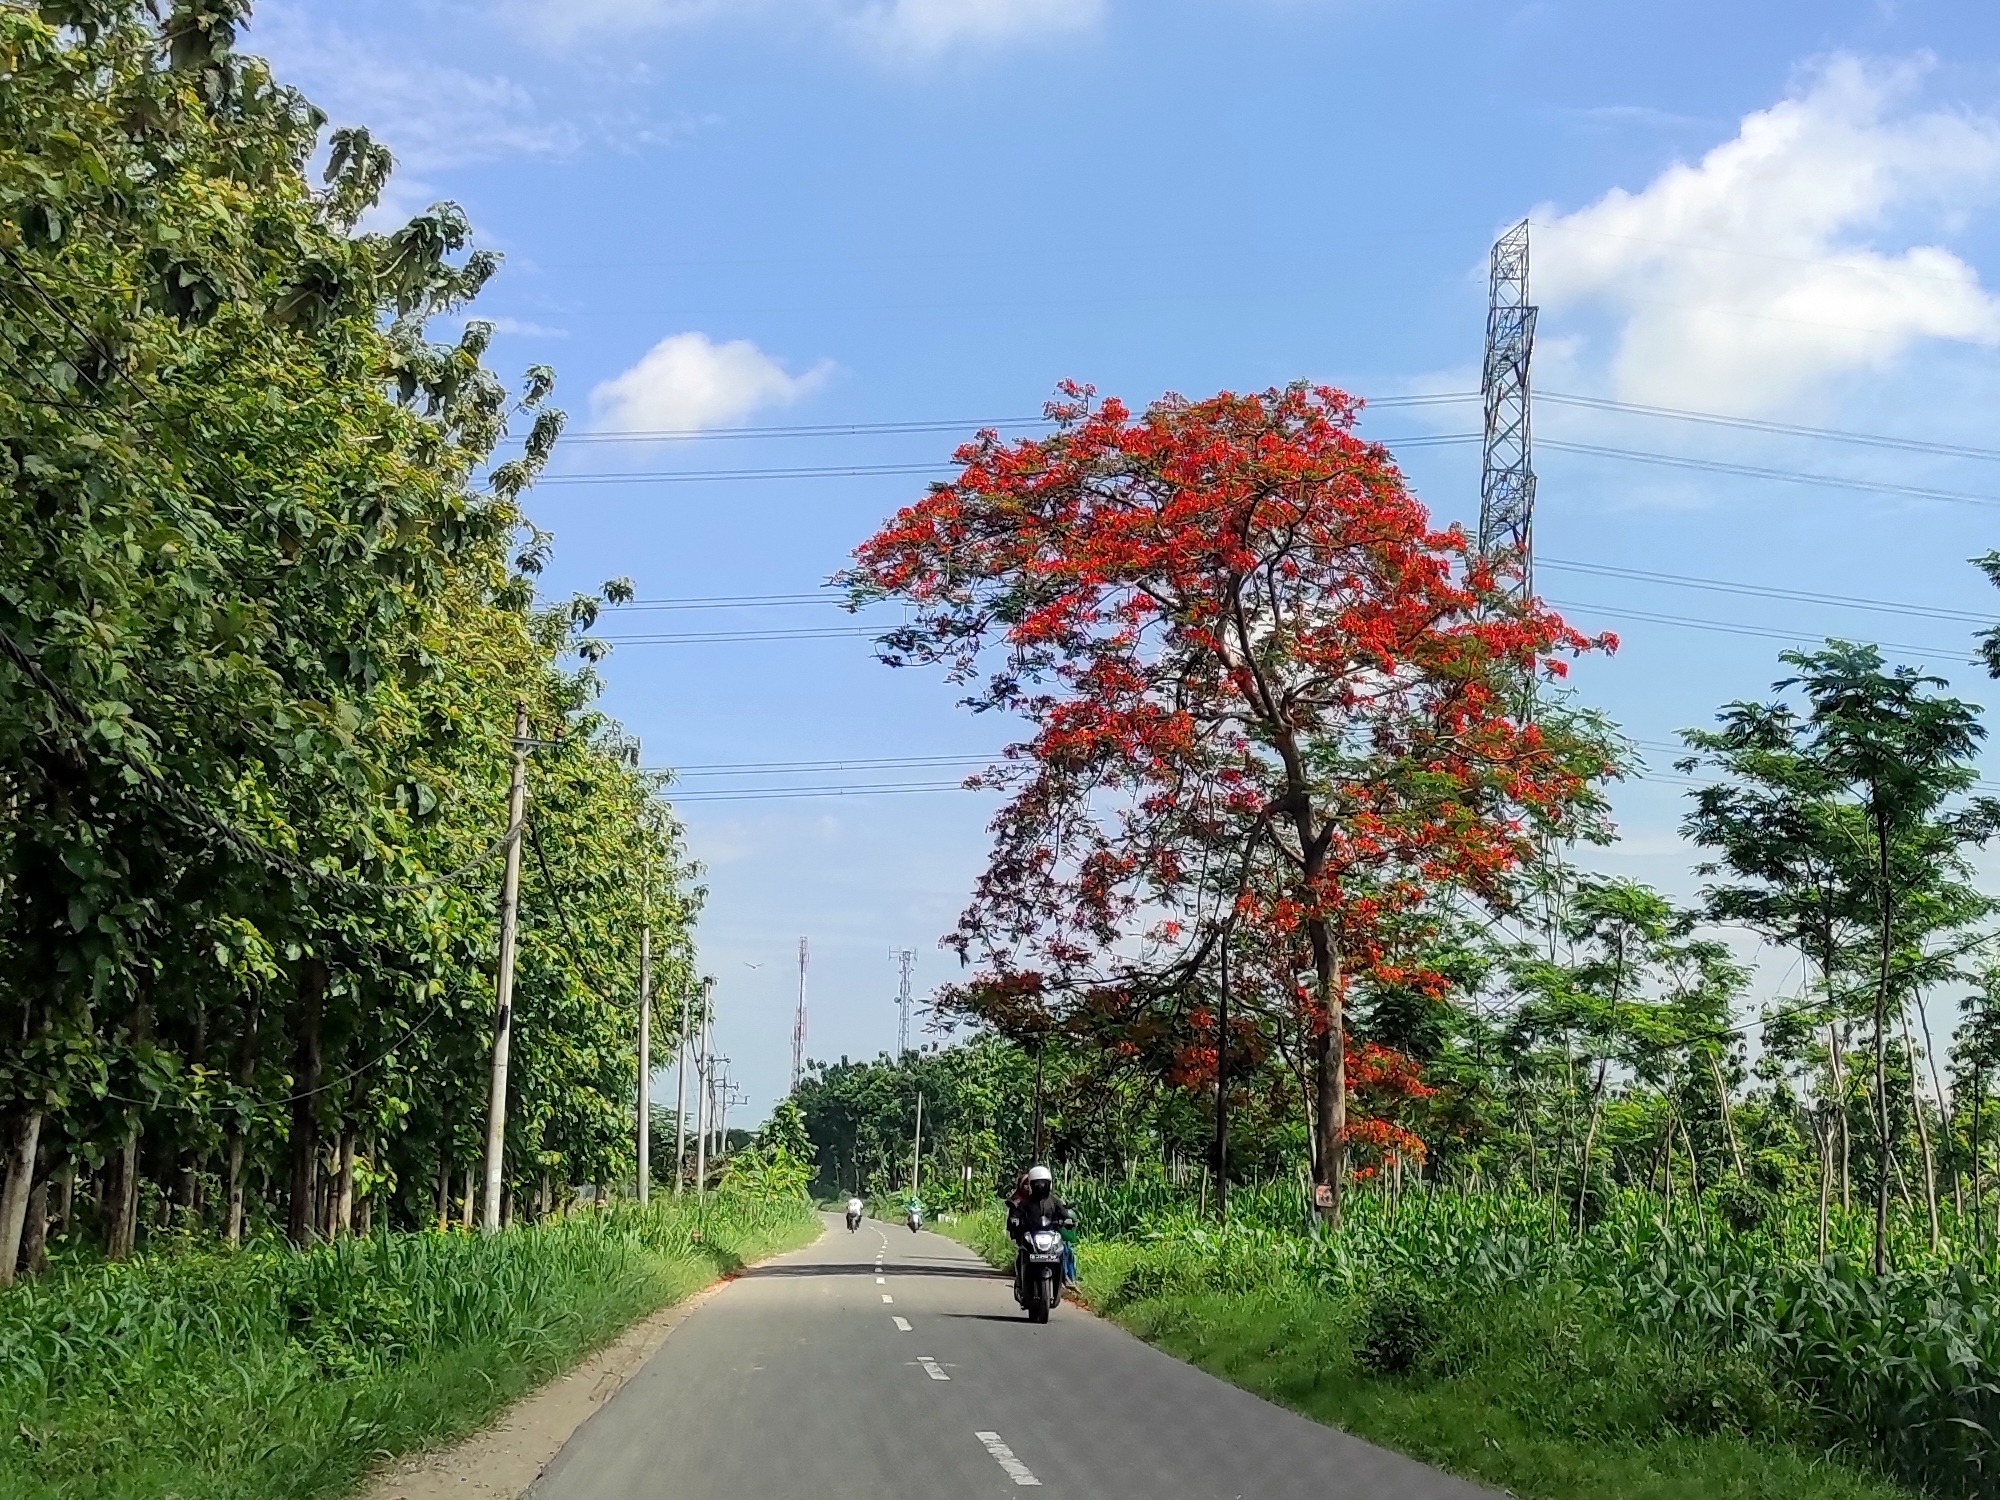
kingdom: Plantae
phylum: Tracheophyta
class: Magnoliopsida
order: Fabales
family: Fabaceae
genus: Delonix
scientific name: Delonix regia
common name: Royal poinciana
